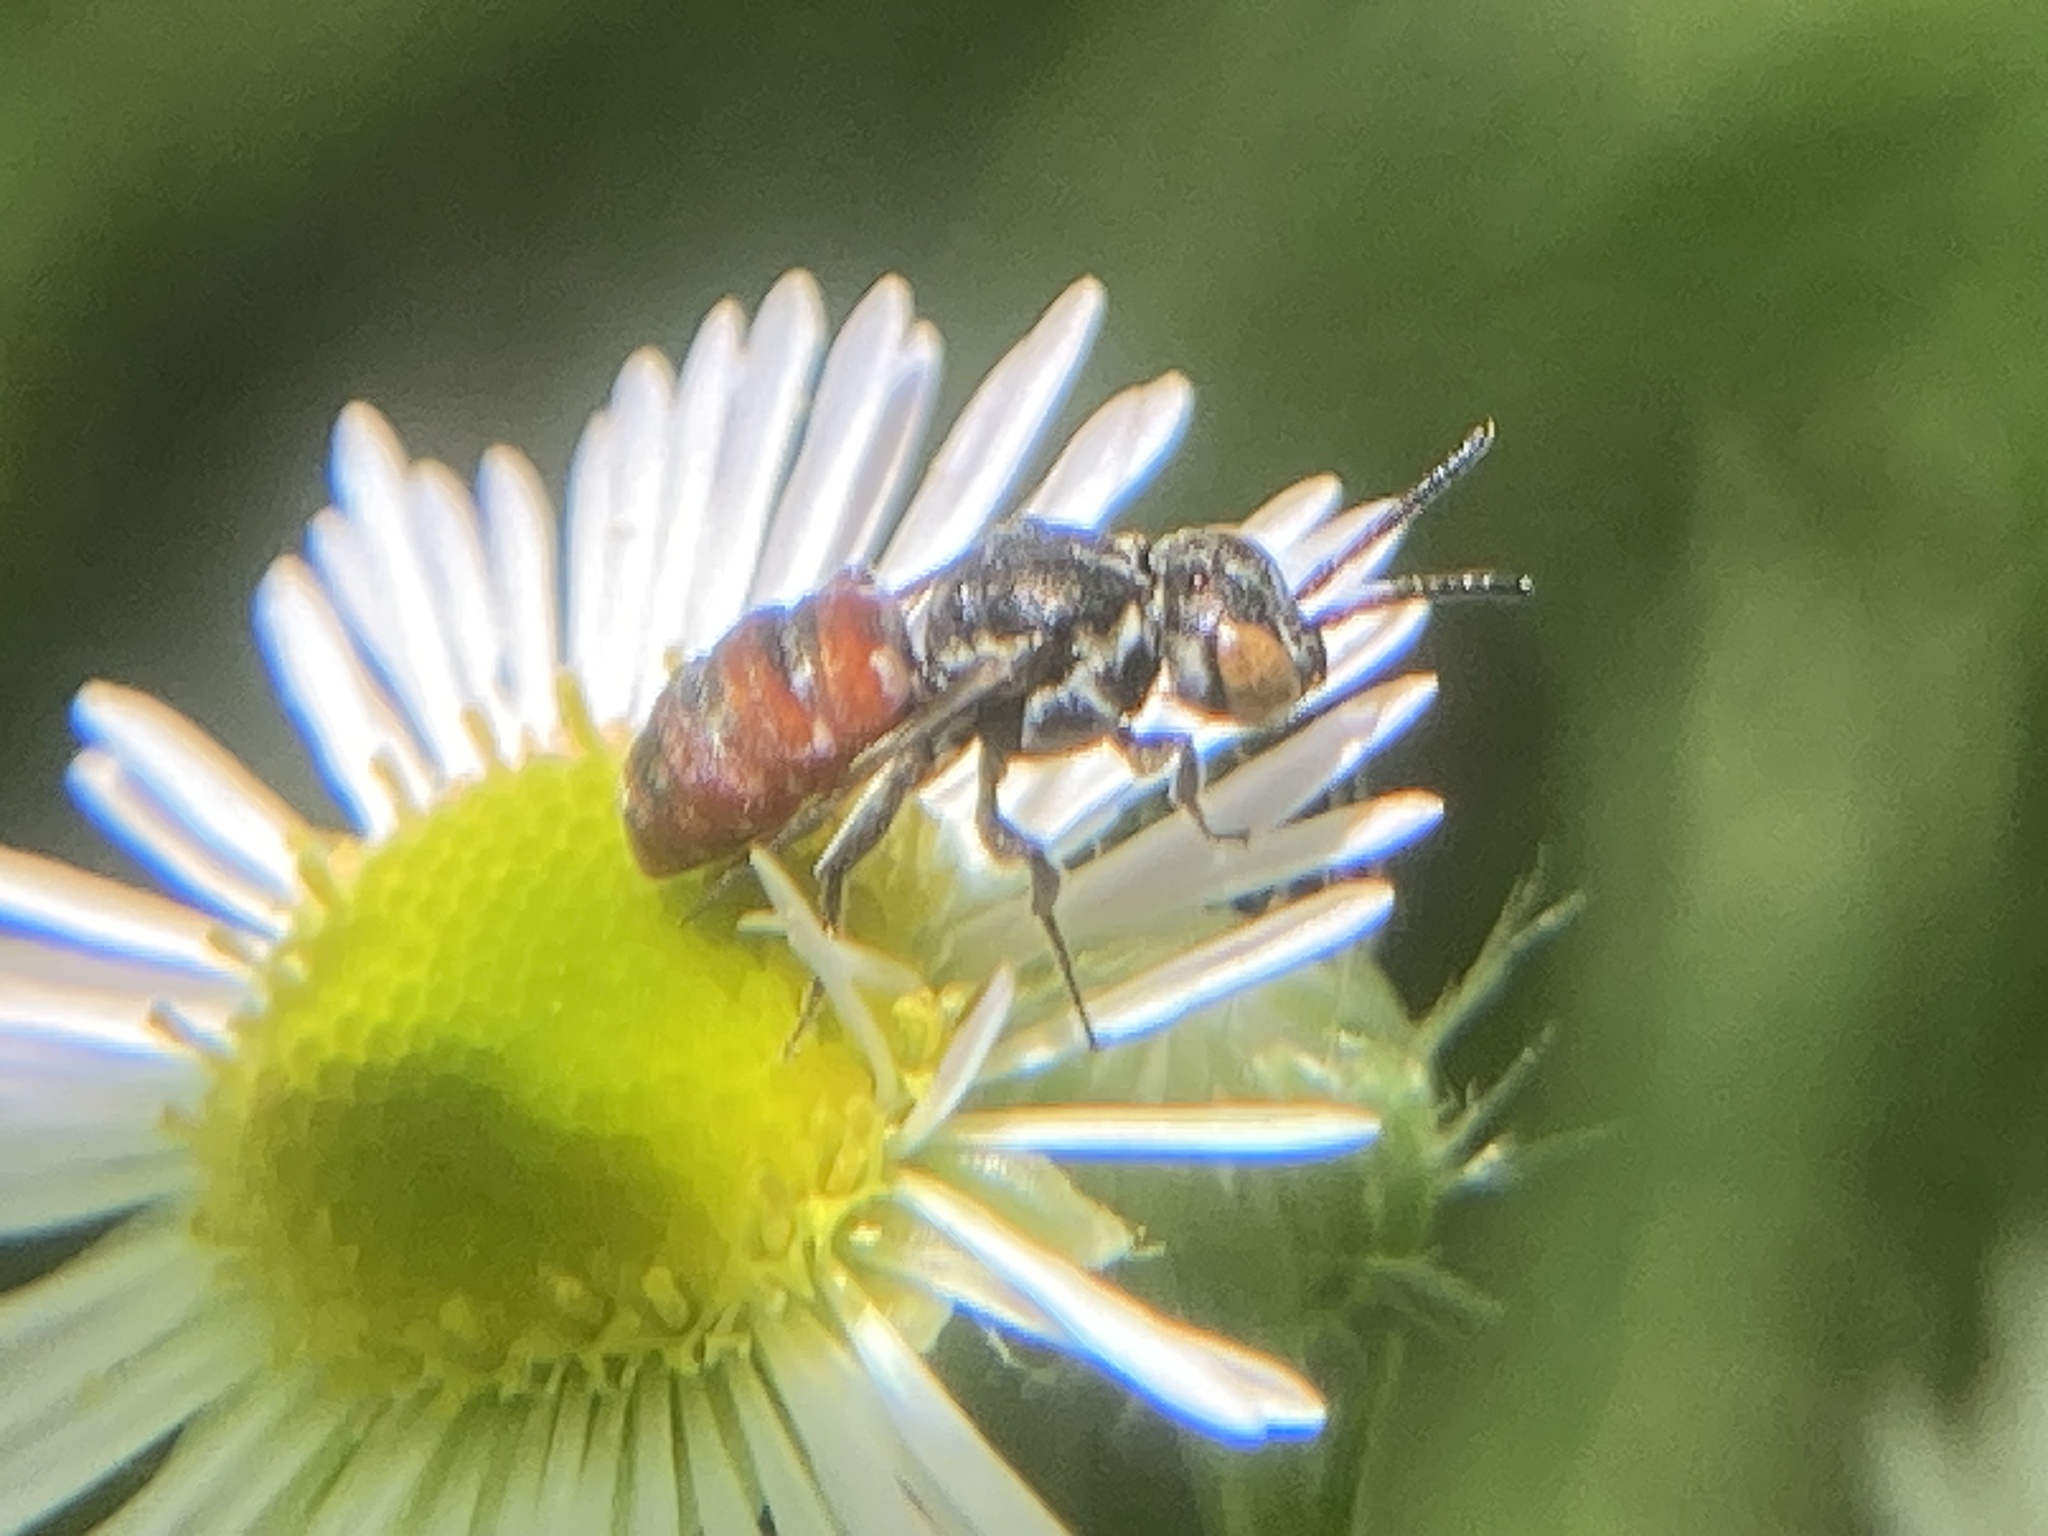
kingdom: Animalia
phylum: Arthropoda
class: Insecta
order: Hymenoptera
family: Apidae
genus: Holcopasites
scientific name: Holcopasites calliopsidis
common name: Calliopsis cuckoo nomad bee
